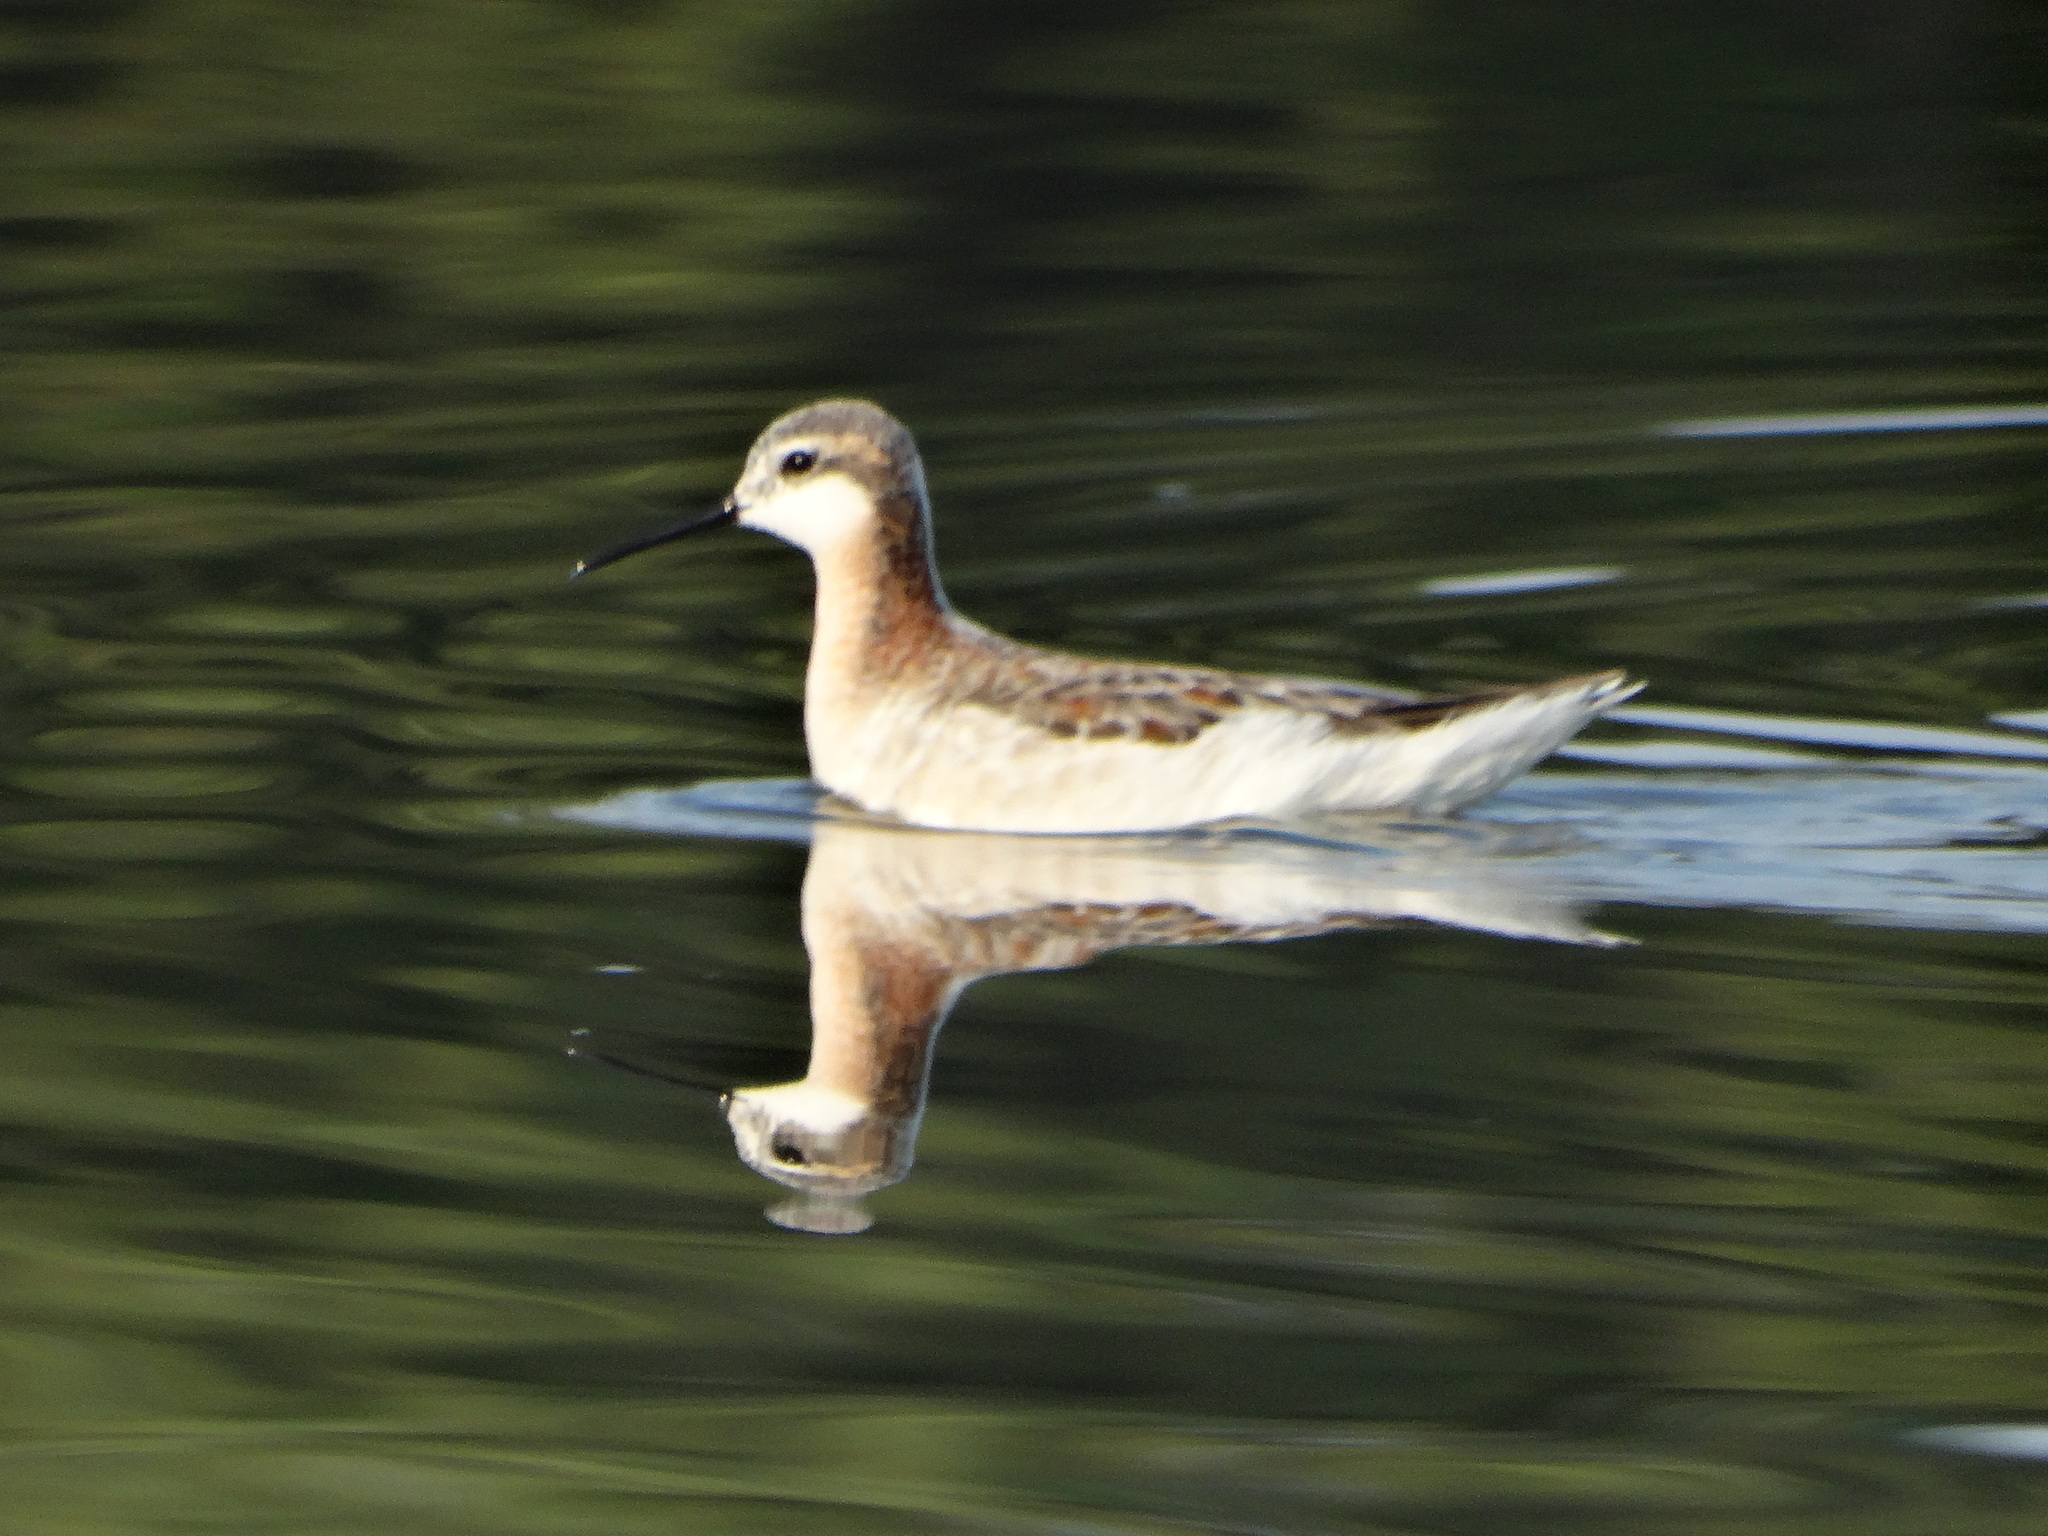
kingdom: Animalia
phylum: Chordata
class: Aves
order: Charadriiformes
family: Scolopacidae
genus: Phalaropus
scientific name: Phalaropus tricolor
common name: Wilson's phalarope
